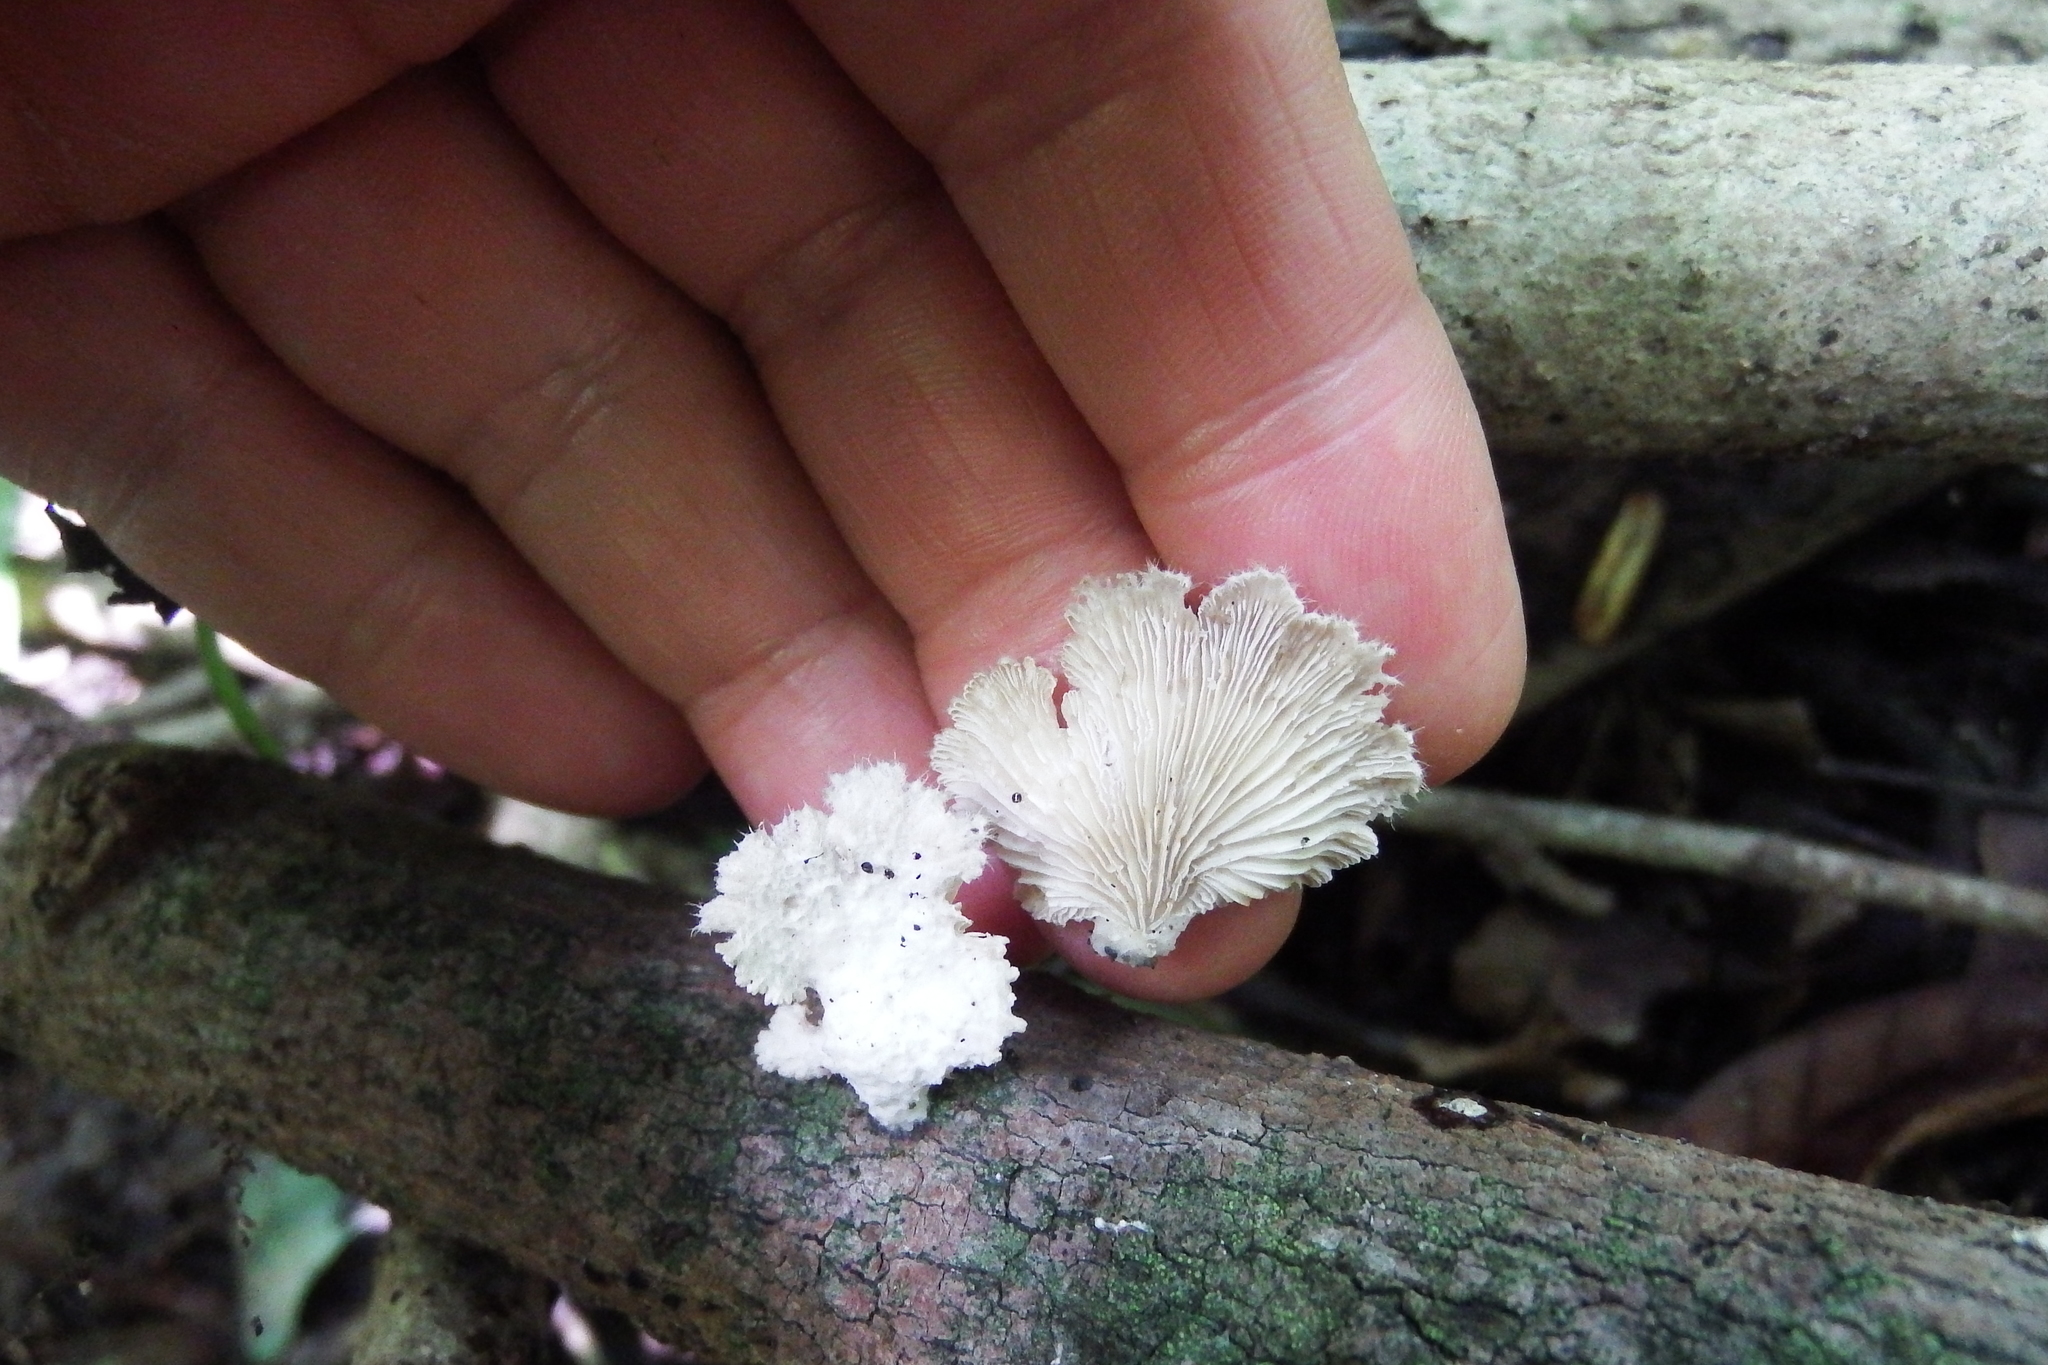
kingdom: Fungi
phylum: Basidiomycota
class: Agaricomycetes
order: Agaricales
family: Schizophyllaceae
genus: Schizophyllum
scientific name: Schizophyllum commune
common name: Common porecrust
